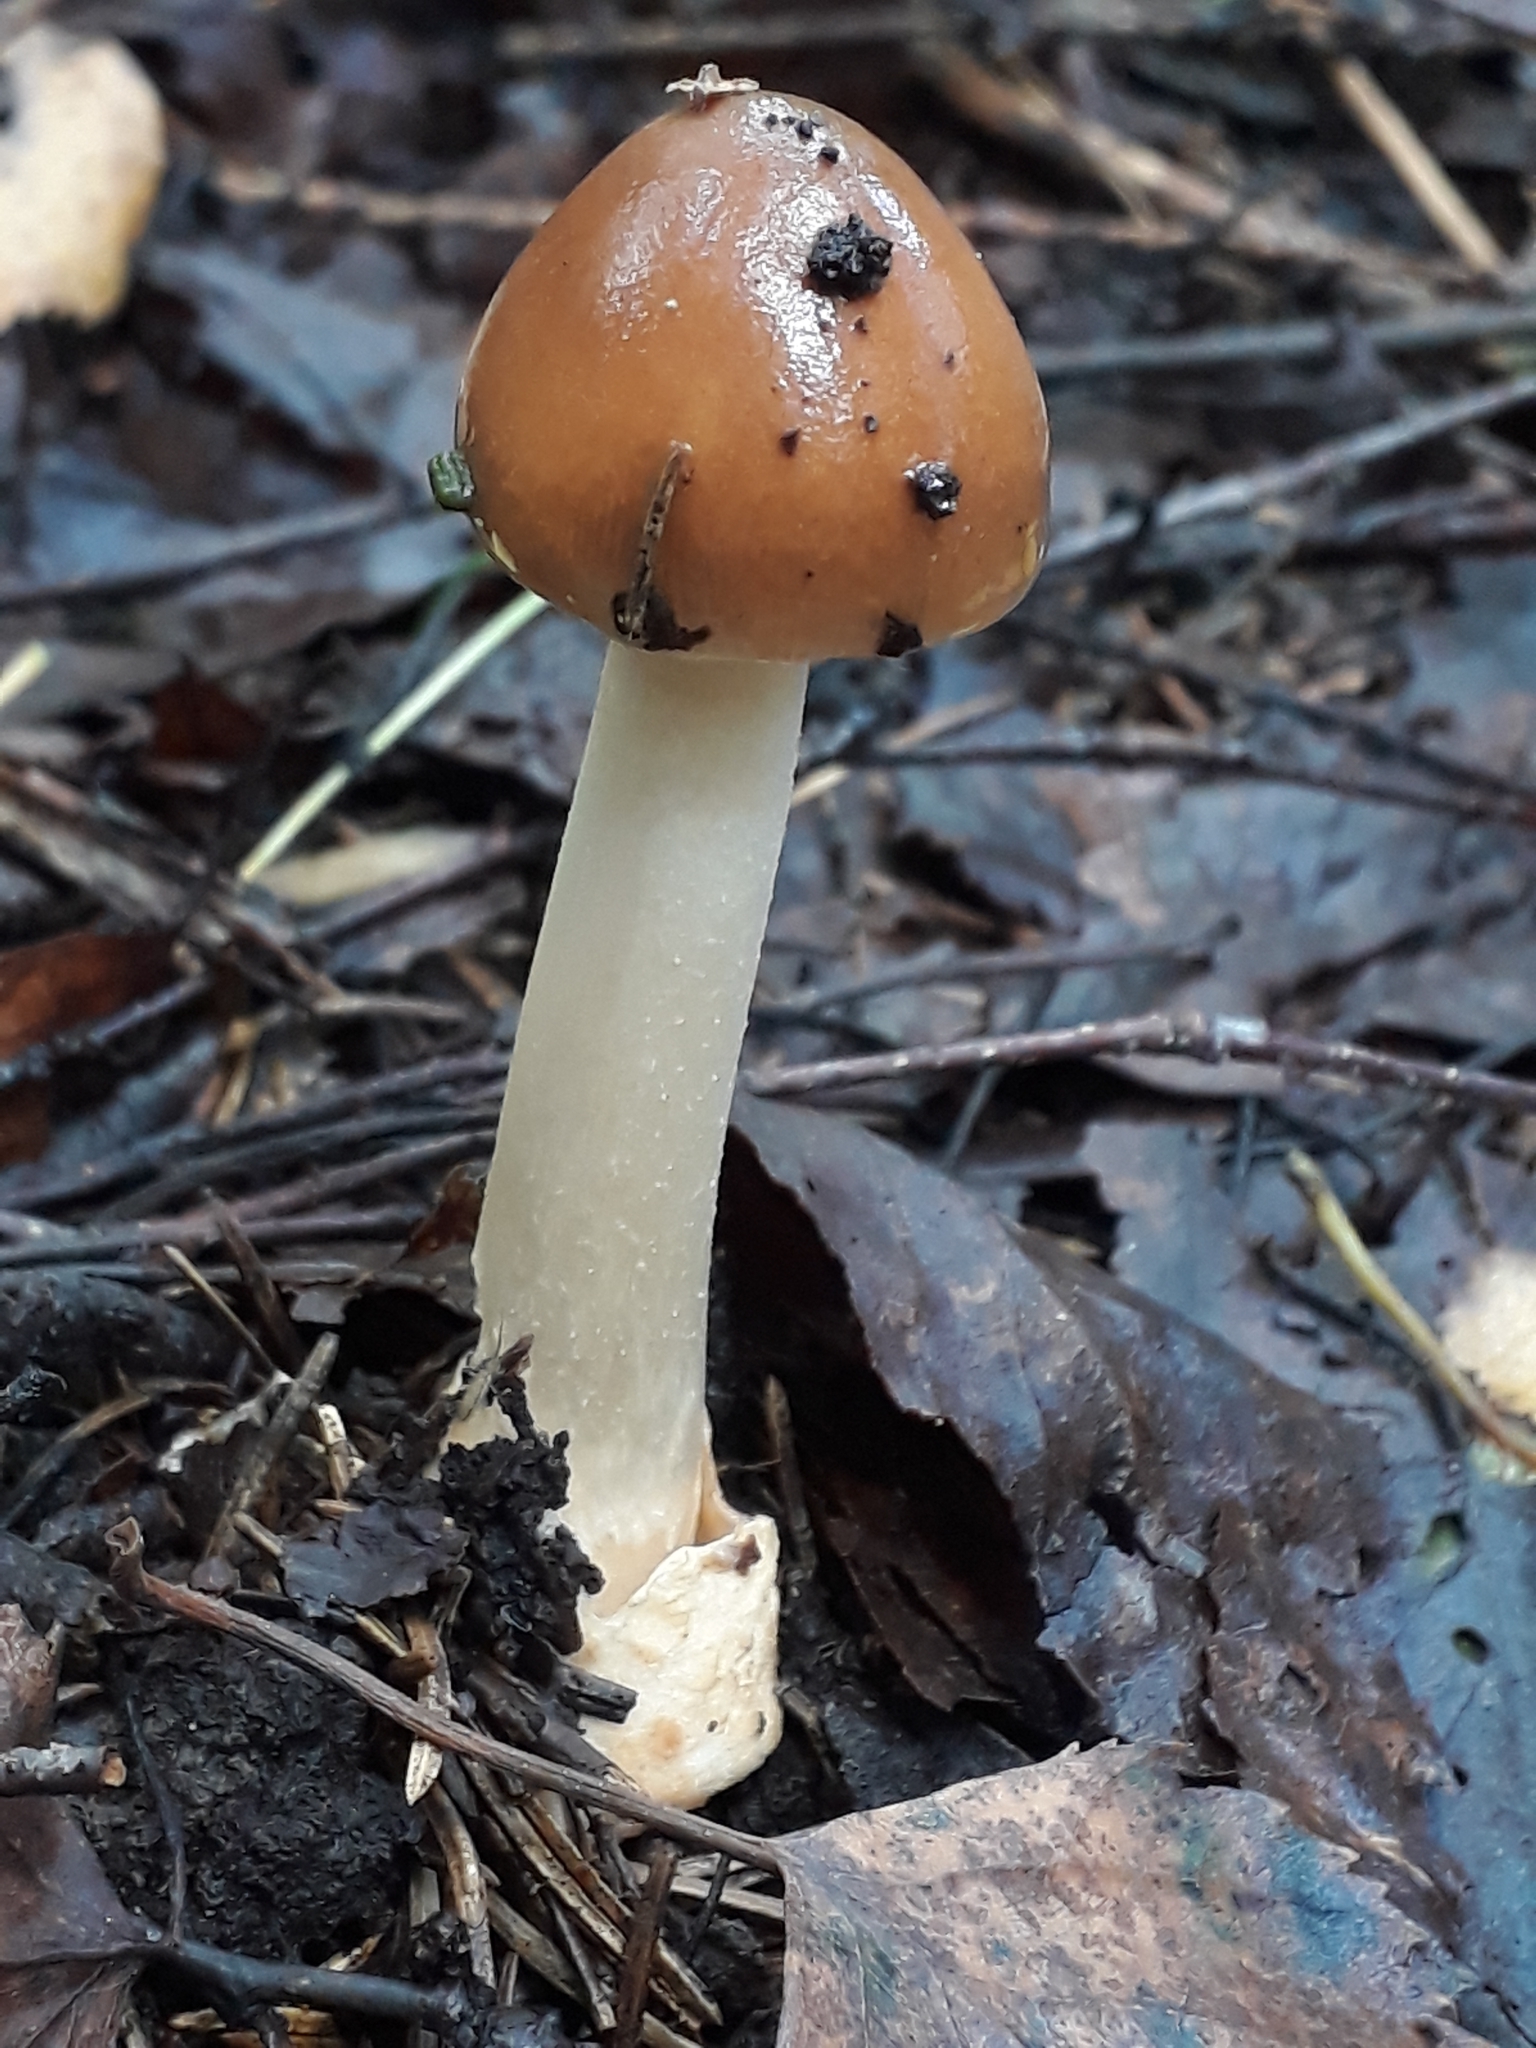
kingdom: Fungi
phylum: Basidiomycota
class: Agaricomycetes
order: Agaricales
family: Amanitaceae
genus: Amanita
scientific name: Amanita fulva
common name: Tawny grisette
